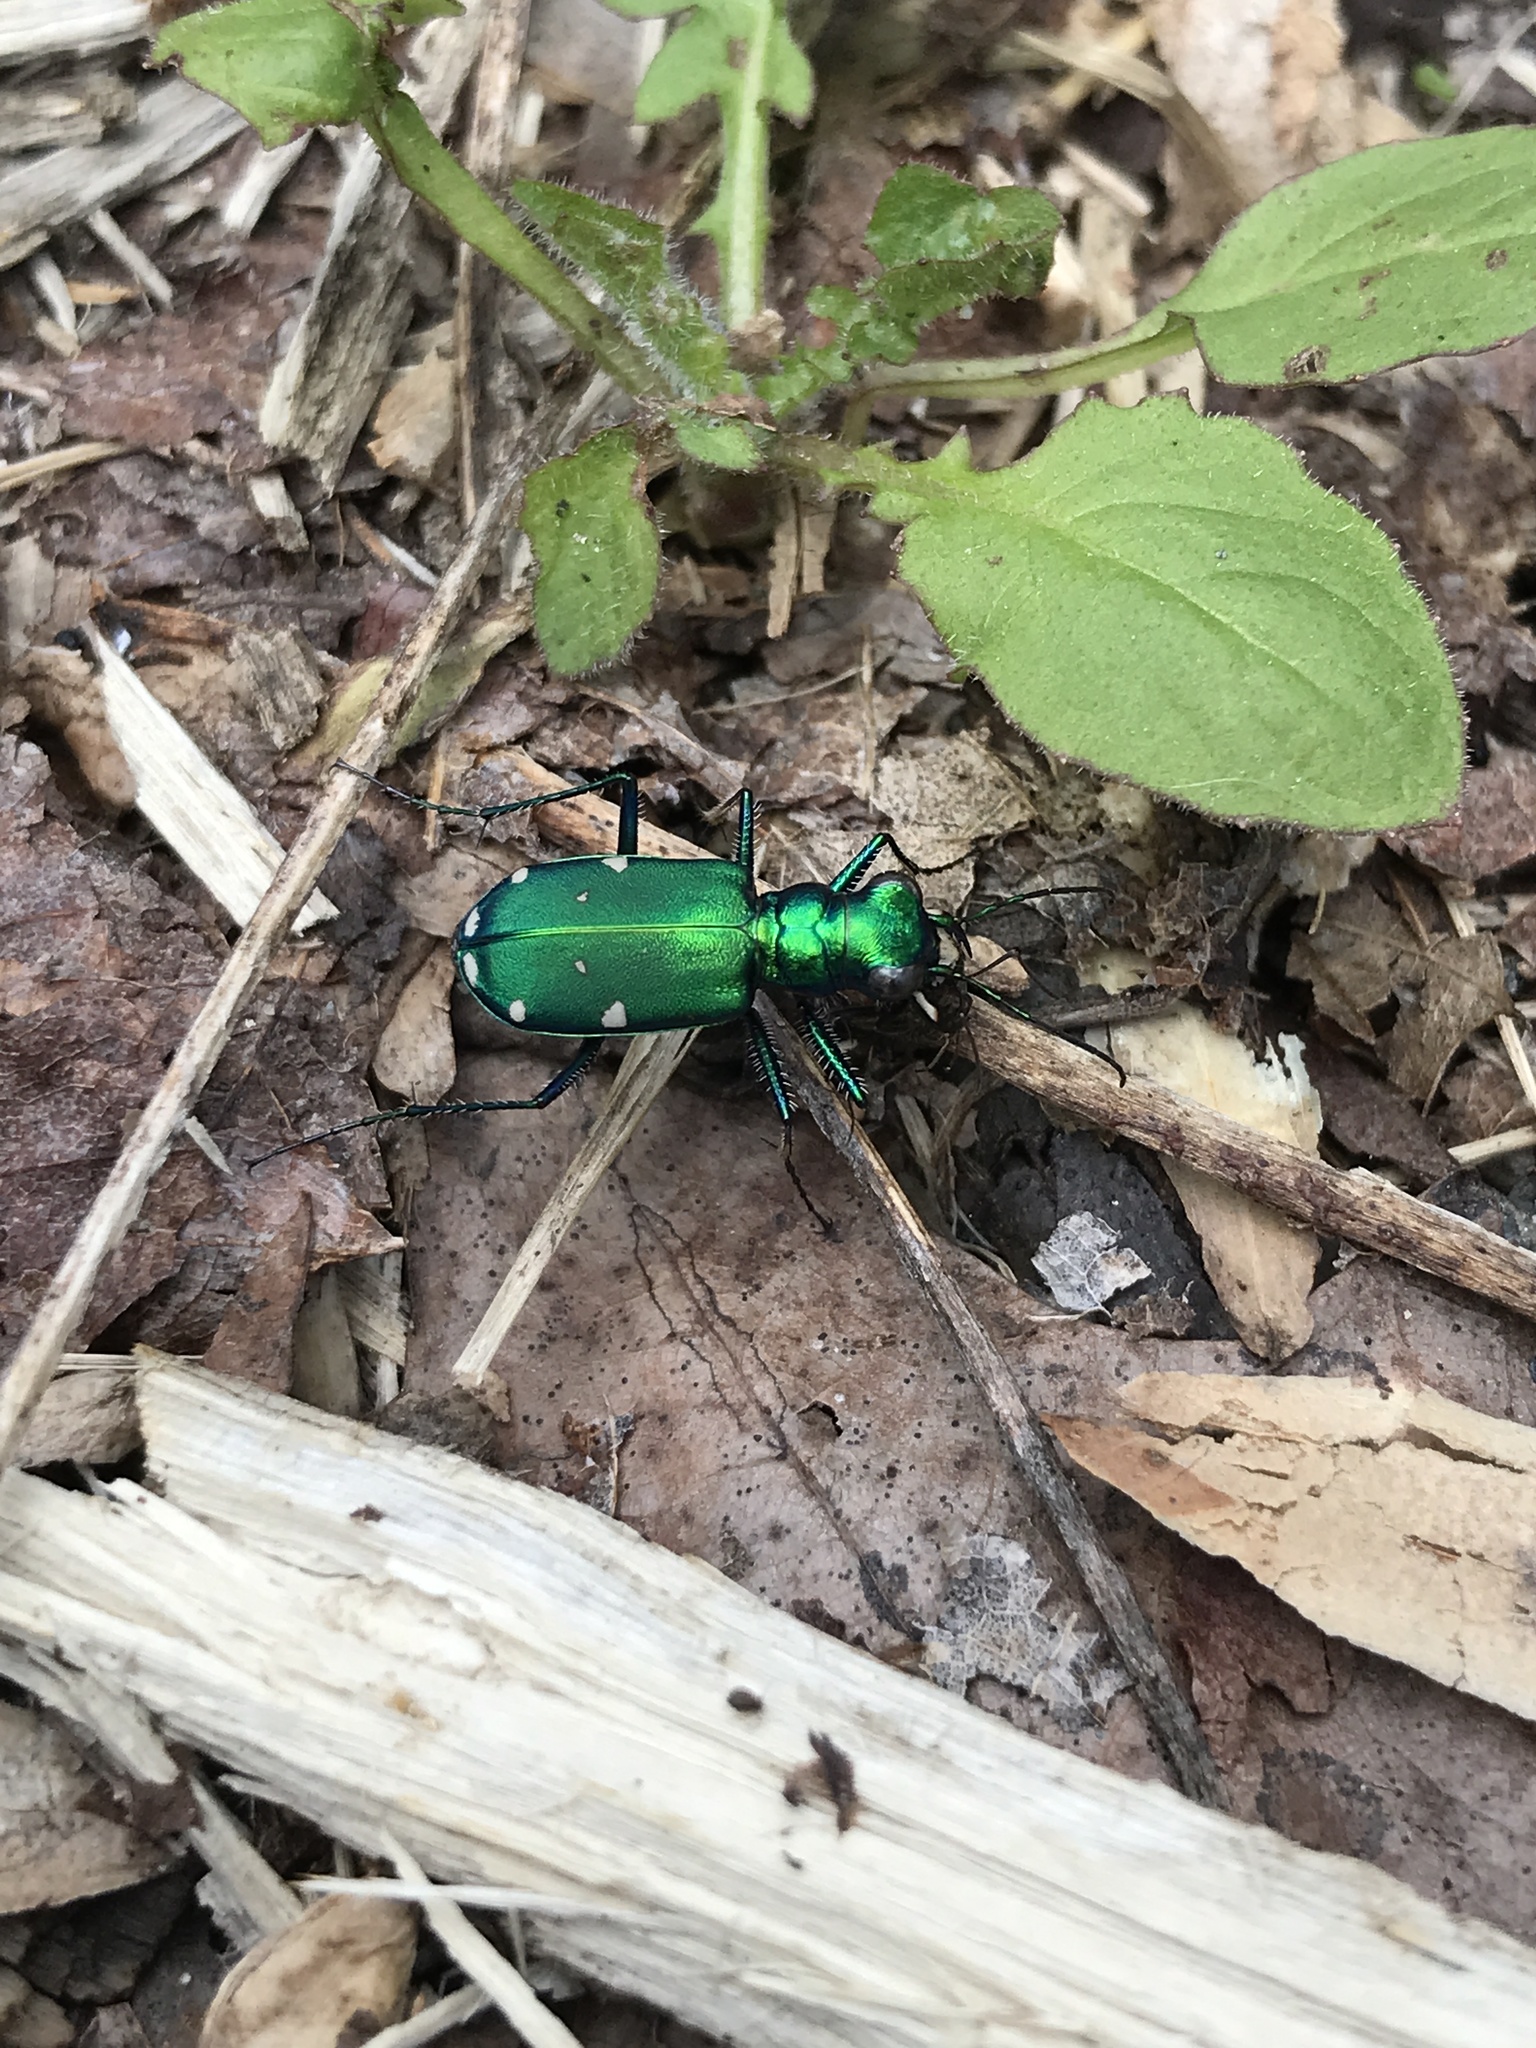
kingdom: Animalia
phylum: Arthropoda
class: Insecta
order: Coleoptera
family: Carabidae
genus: Cicindela
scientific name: Cicindela sexguttata
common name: Six-spotted tiger beetle
